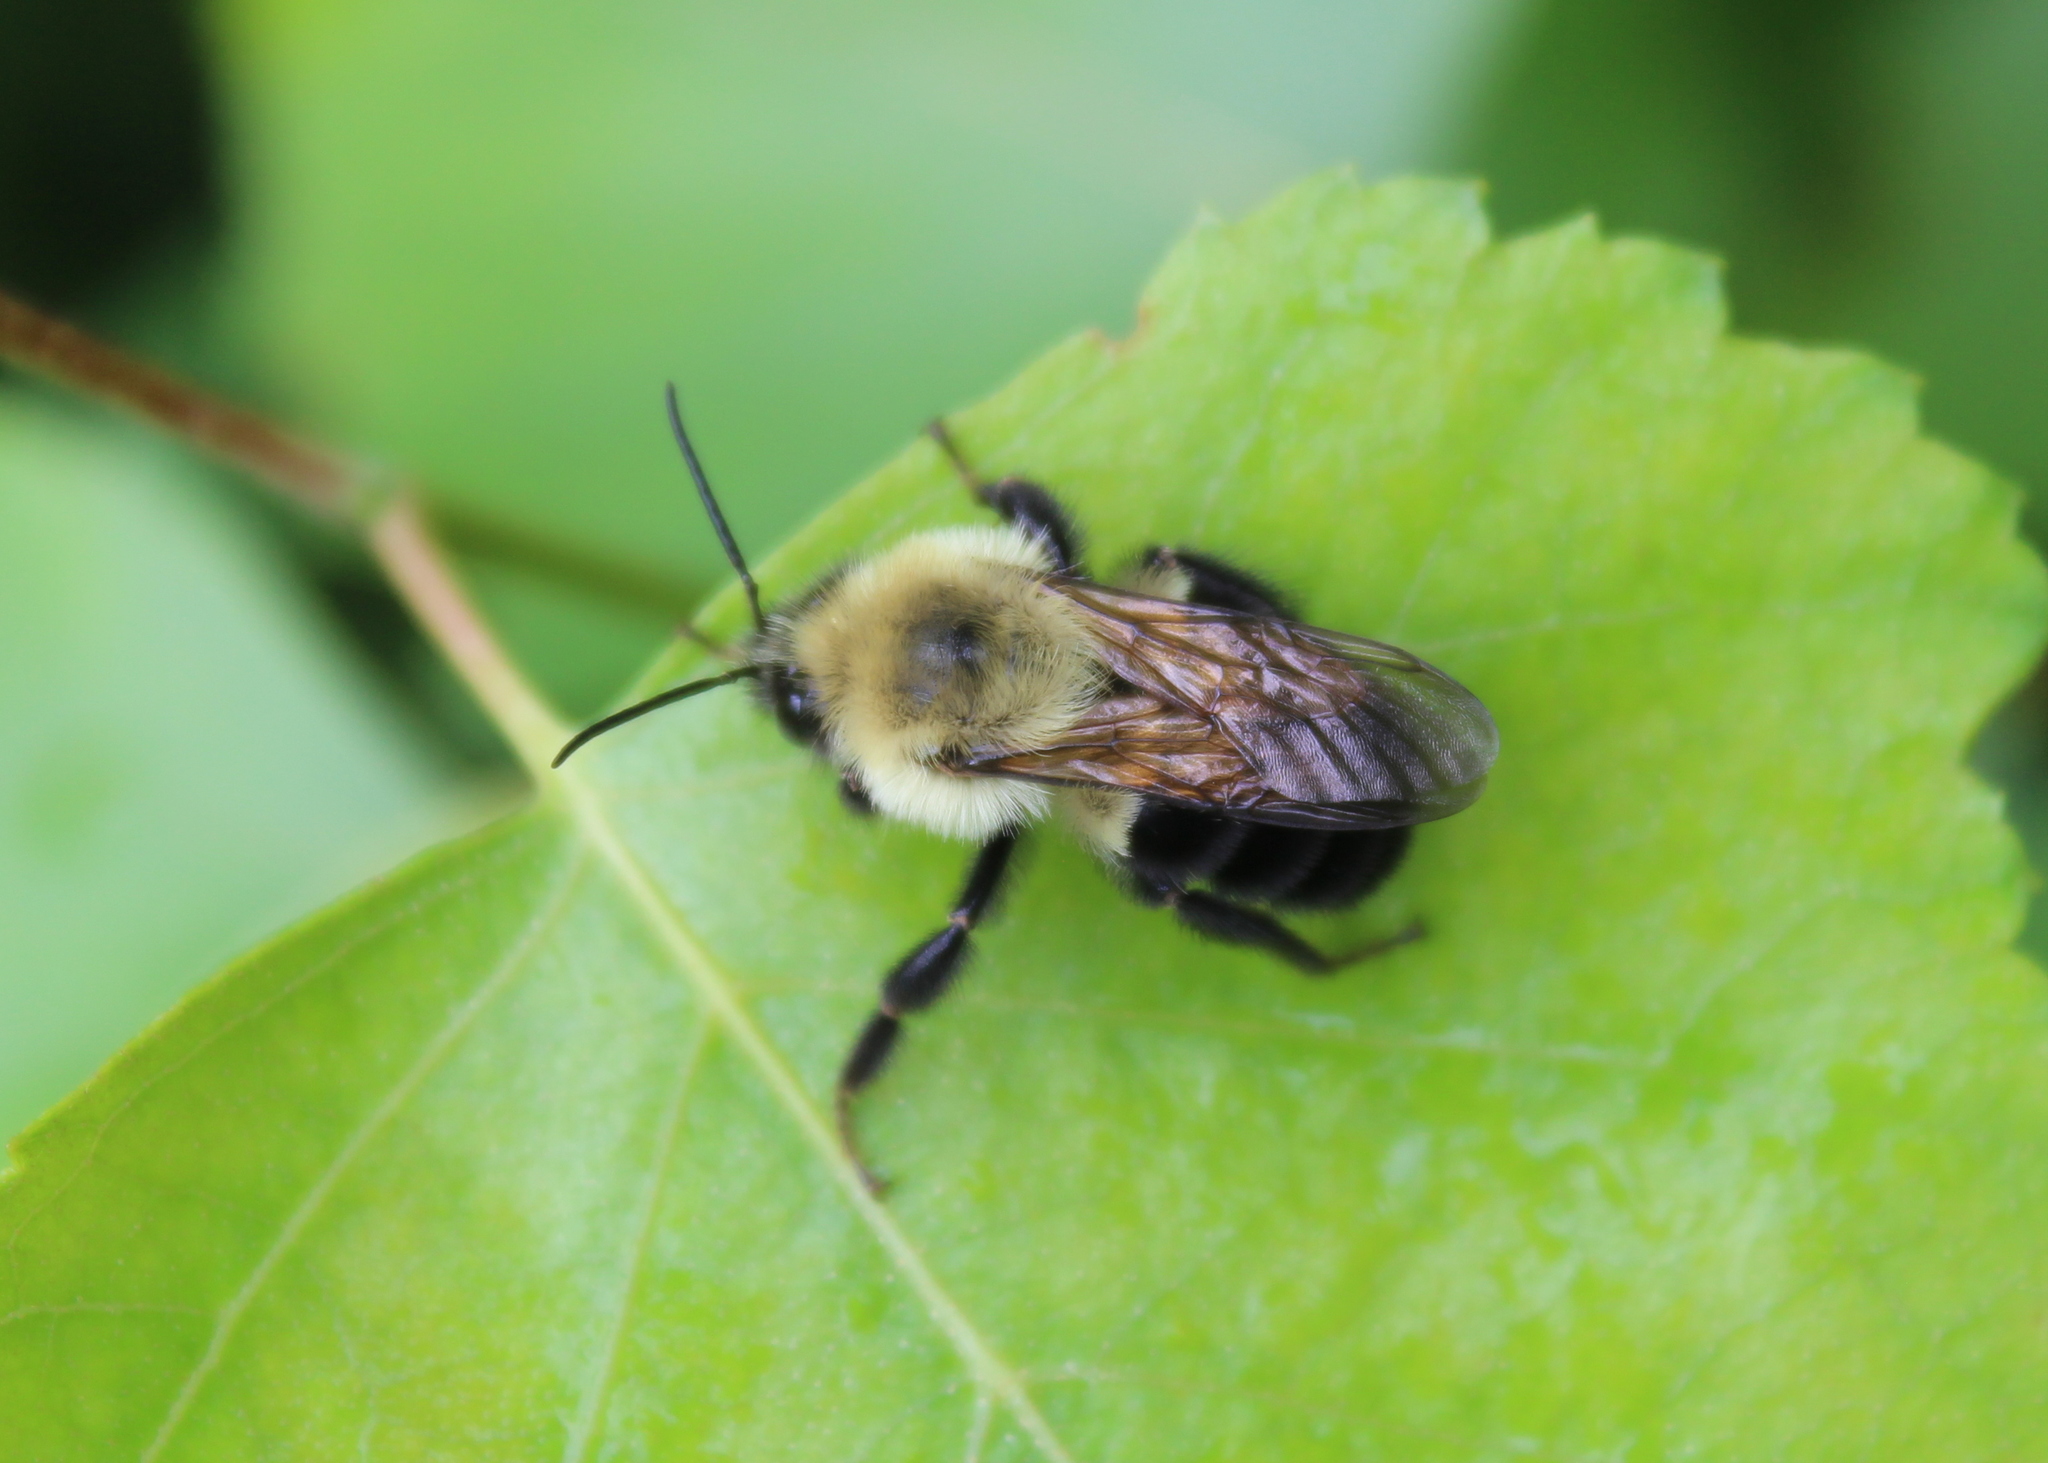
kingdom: Animalia
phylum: Arthropoda
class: Insecta
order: Hymenoptera
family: Apidae
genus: Bombus
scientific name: Bombus bimaculatus
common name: Two-spotted bumble bee
